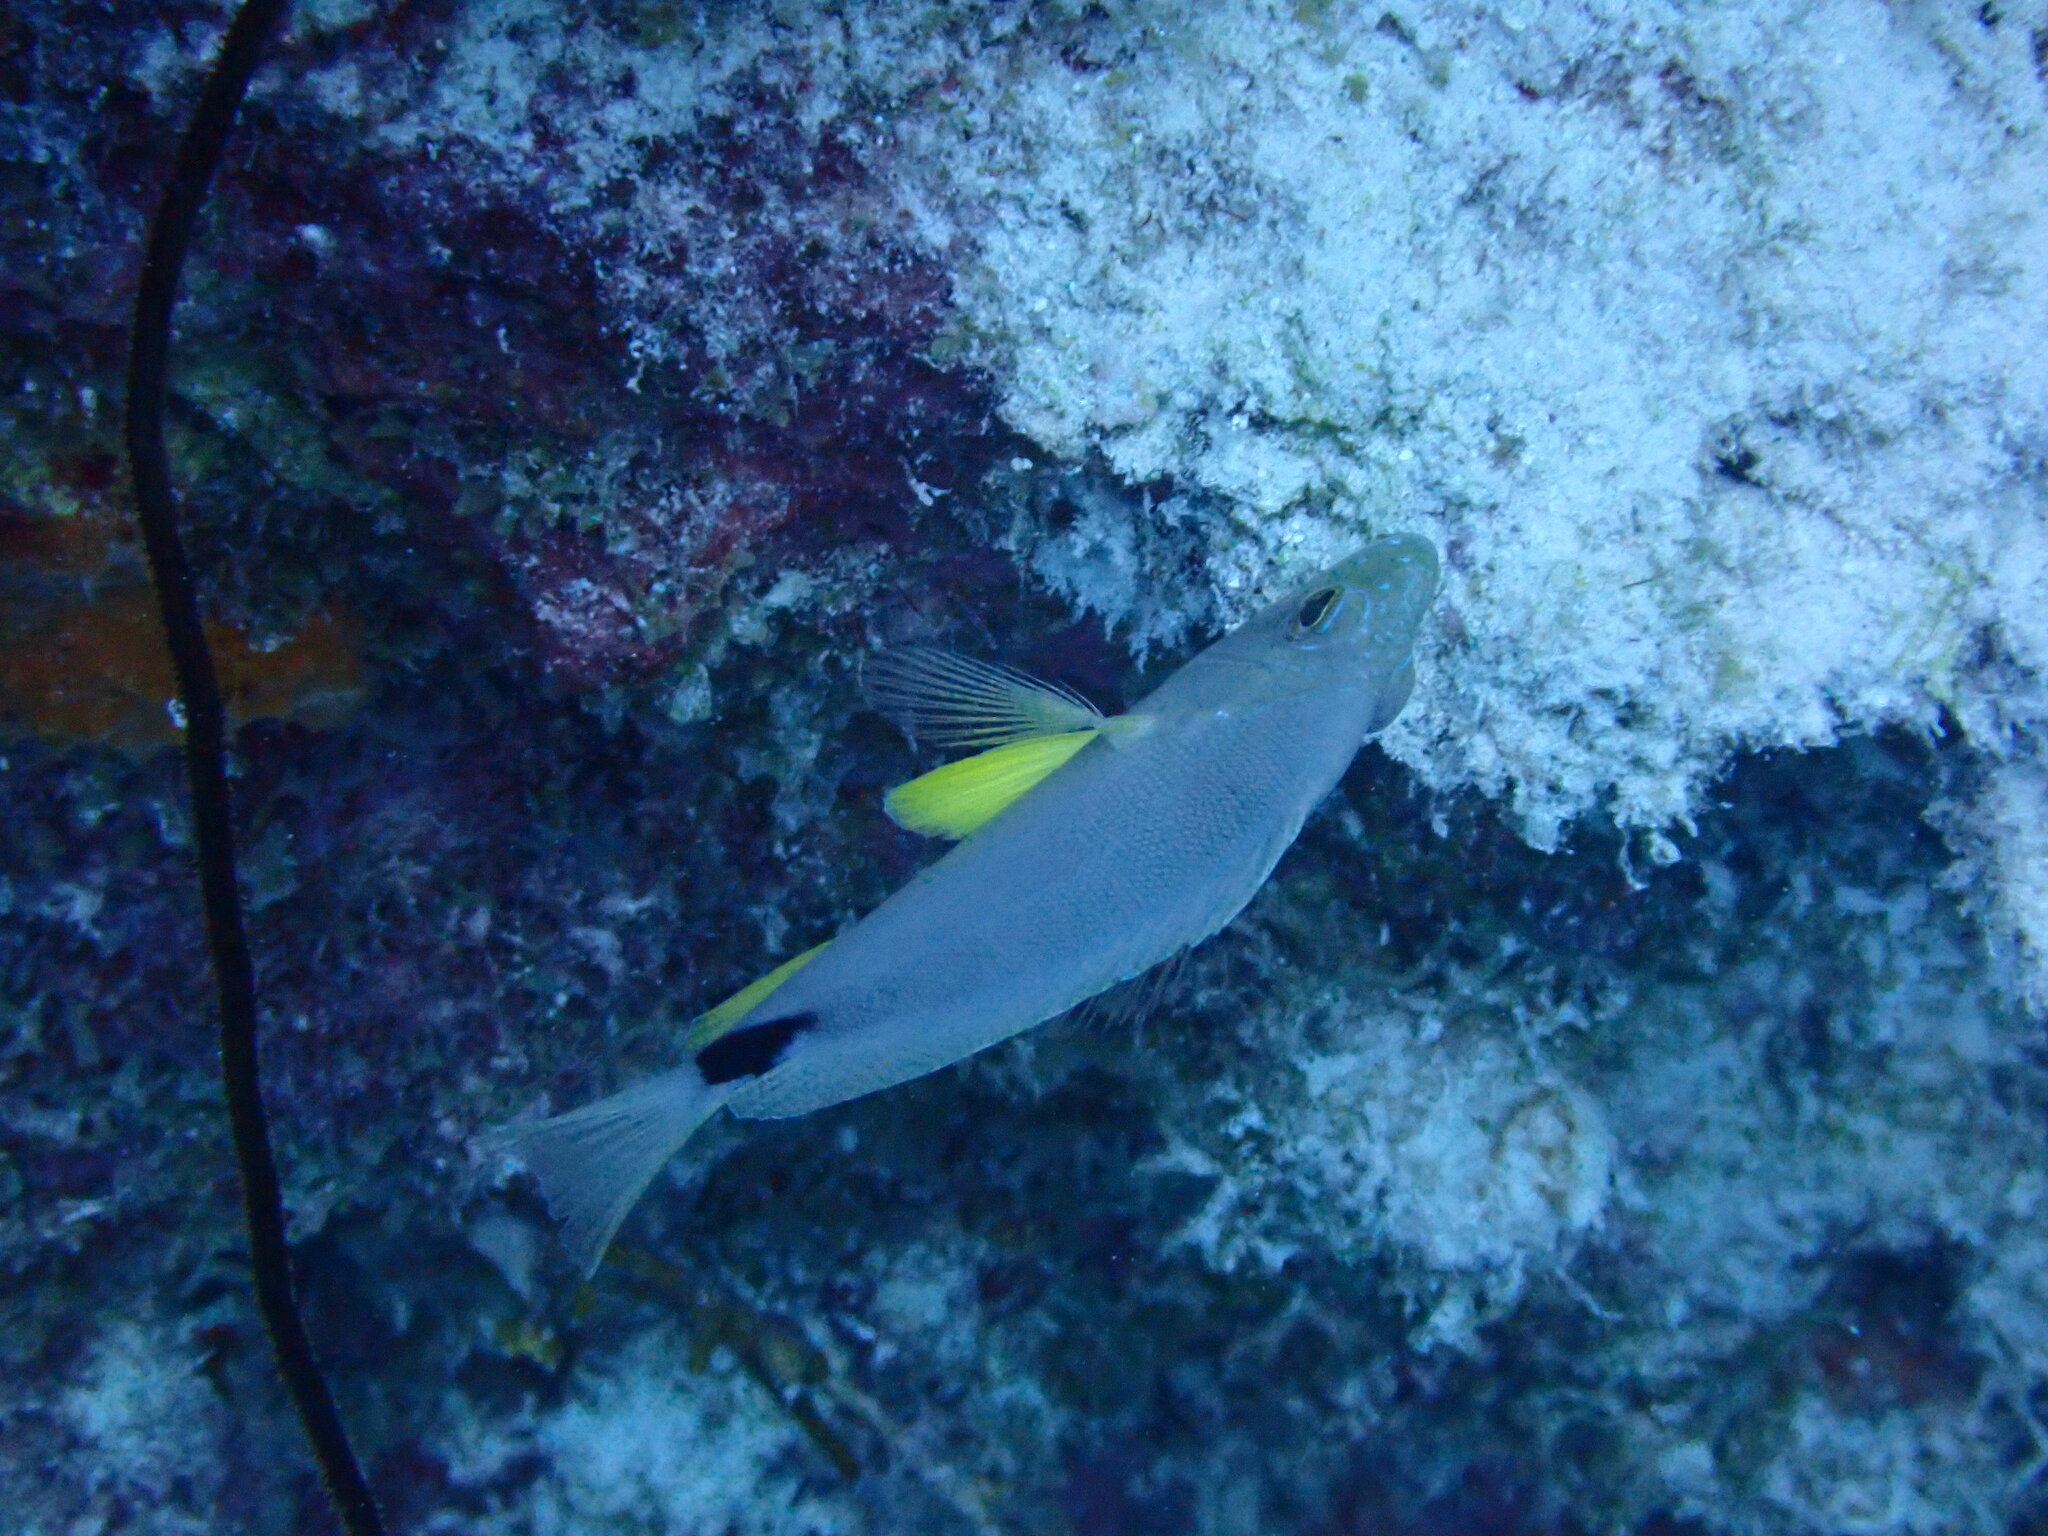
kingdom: Animalia
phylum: Chordata
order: Perciformes
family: Serranidae
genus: Hypoplectrus
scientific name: Hypoplectrus unicolor
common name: Butter hamlet
